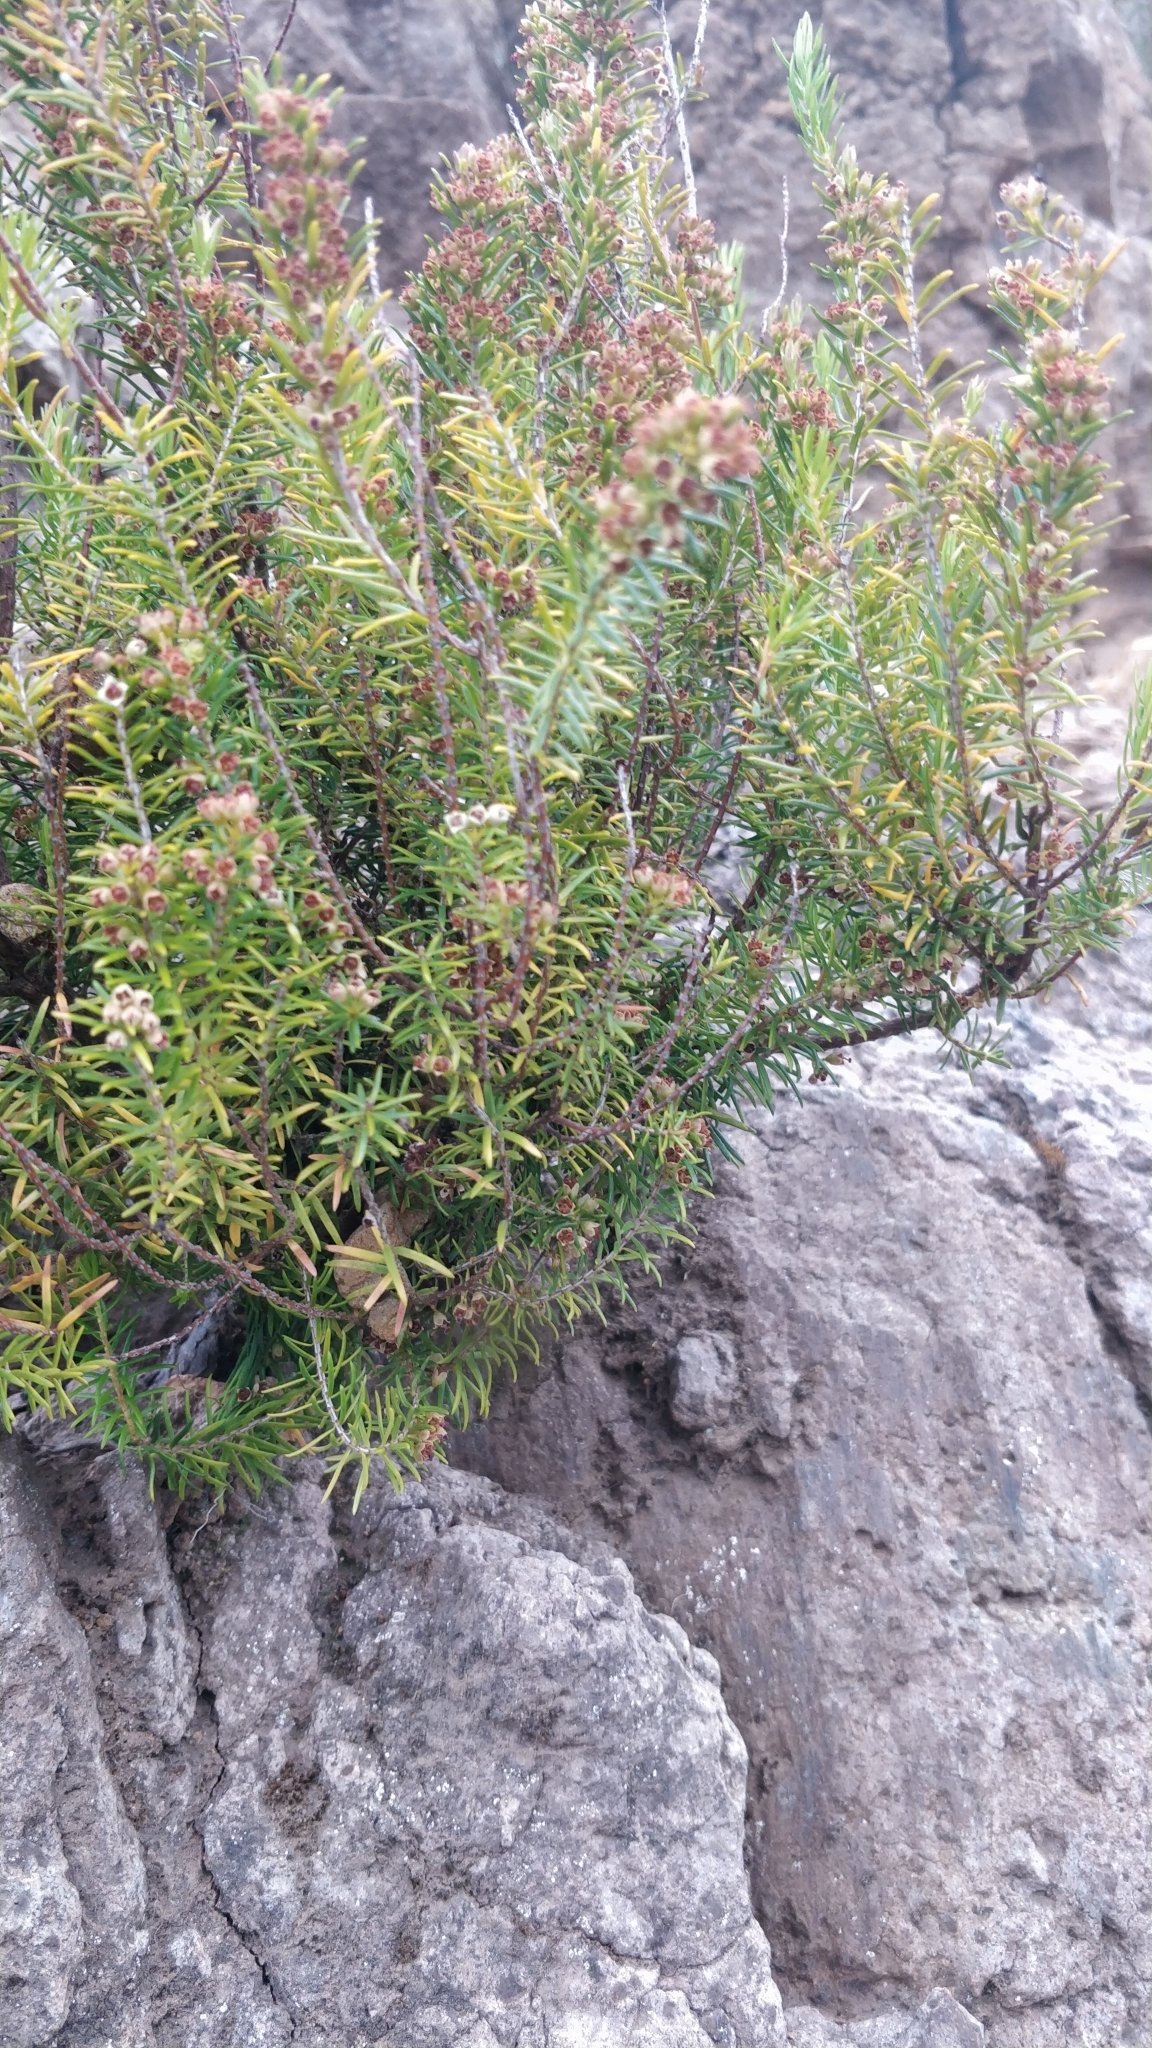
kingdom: Plantae
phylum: Tracheophyta
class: Magnoliopsida
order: Ericales
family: Ericaceae
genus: Erica
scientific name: Erica platycodon
